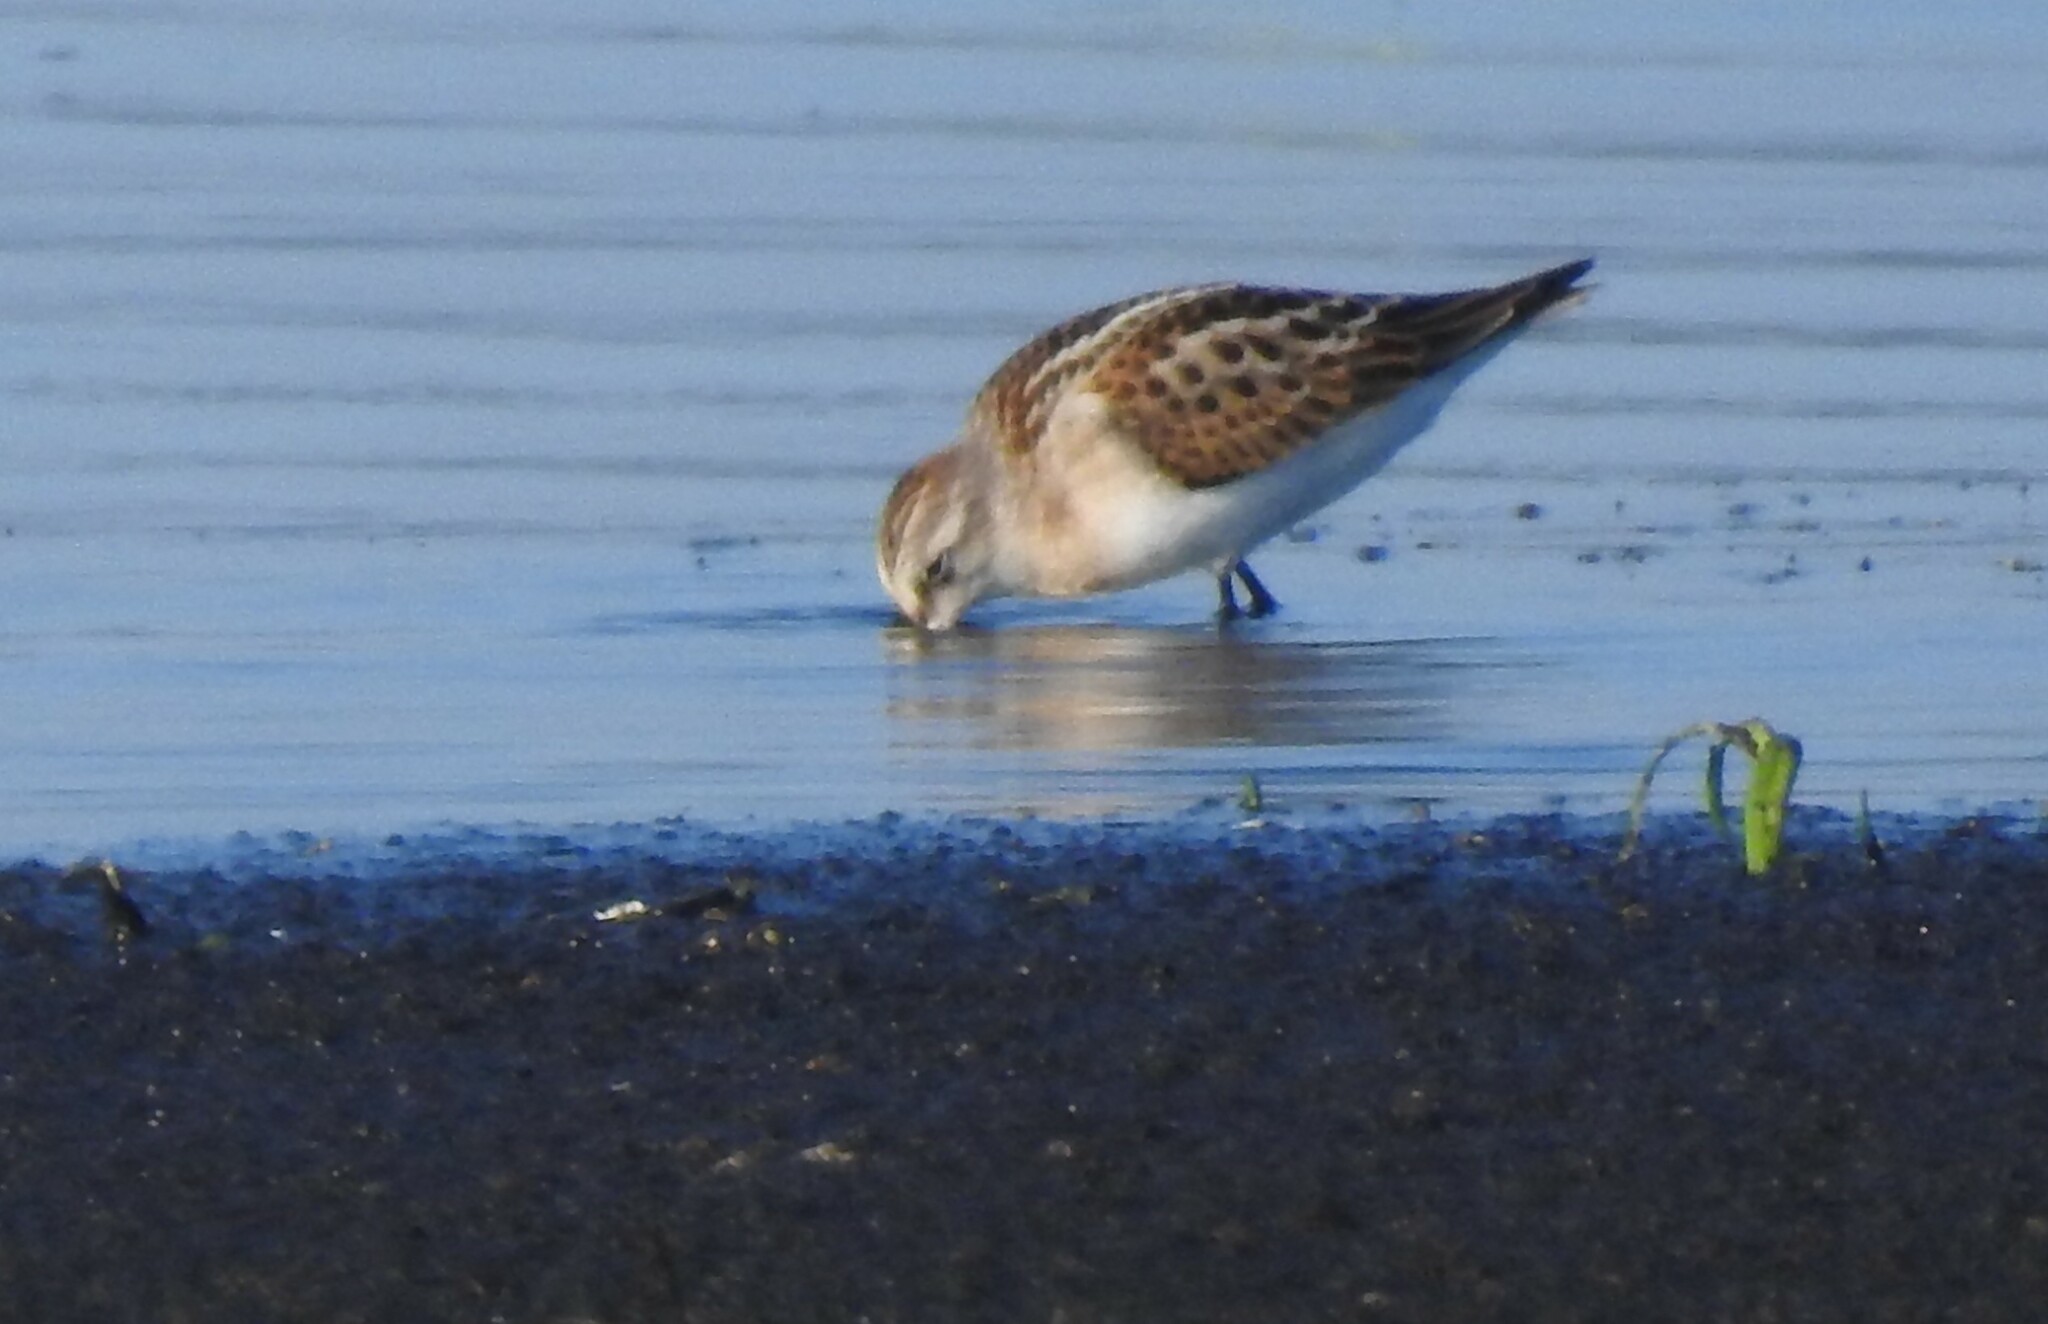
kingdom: Animalia
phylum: Chordata
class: Aves
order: Charadriiformes
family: Scolopacidae
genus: Calidris
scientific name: Calidris minuta
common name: Little stint
